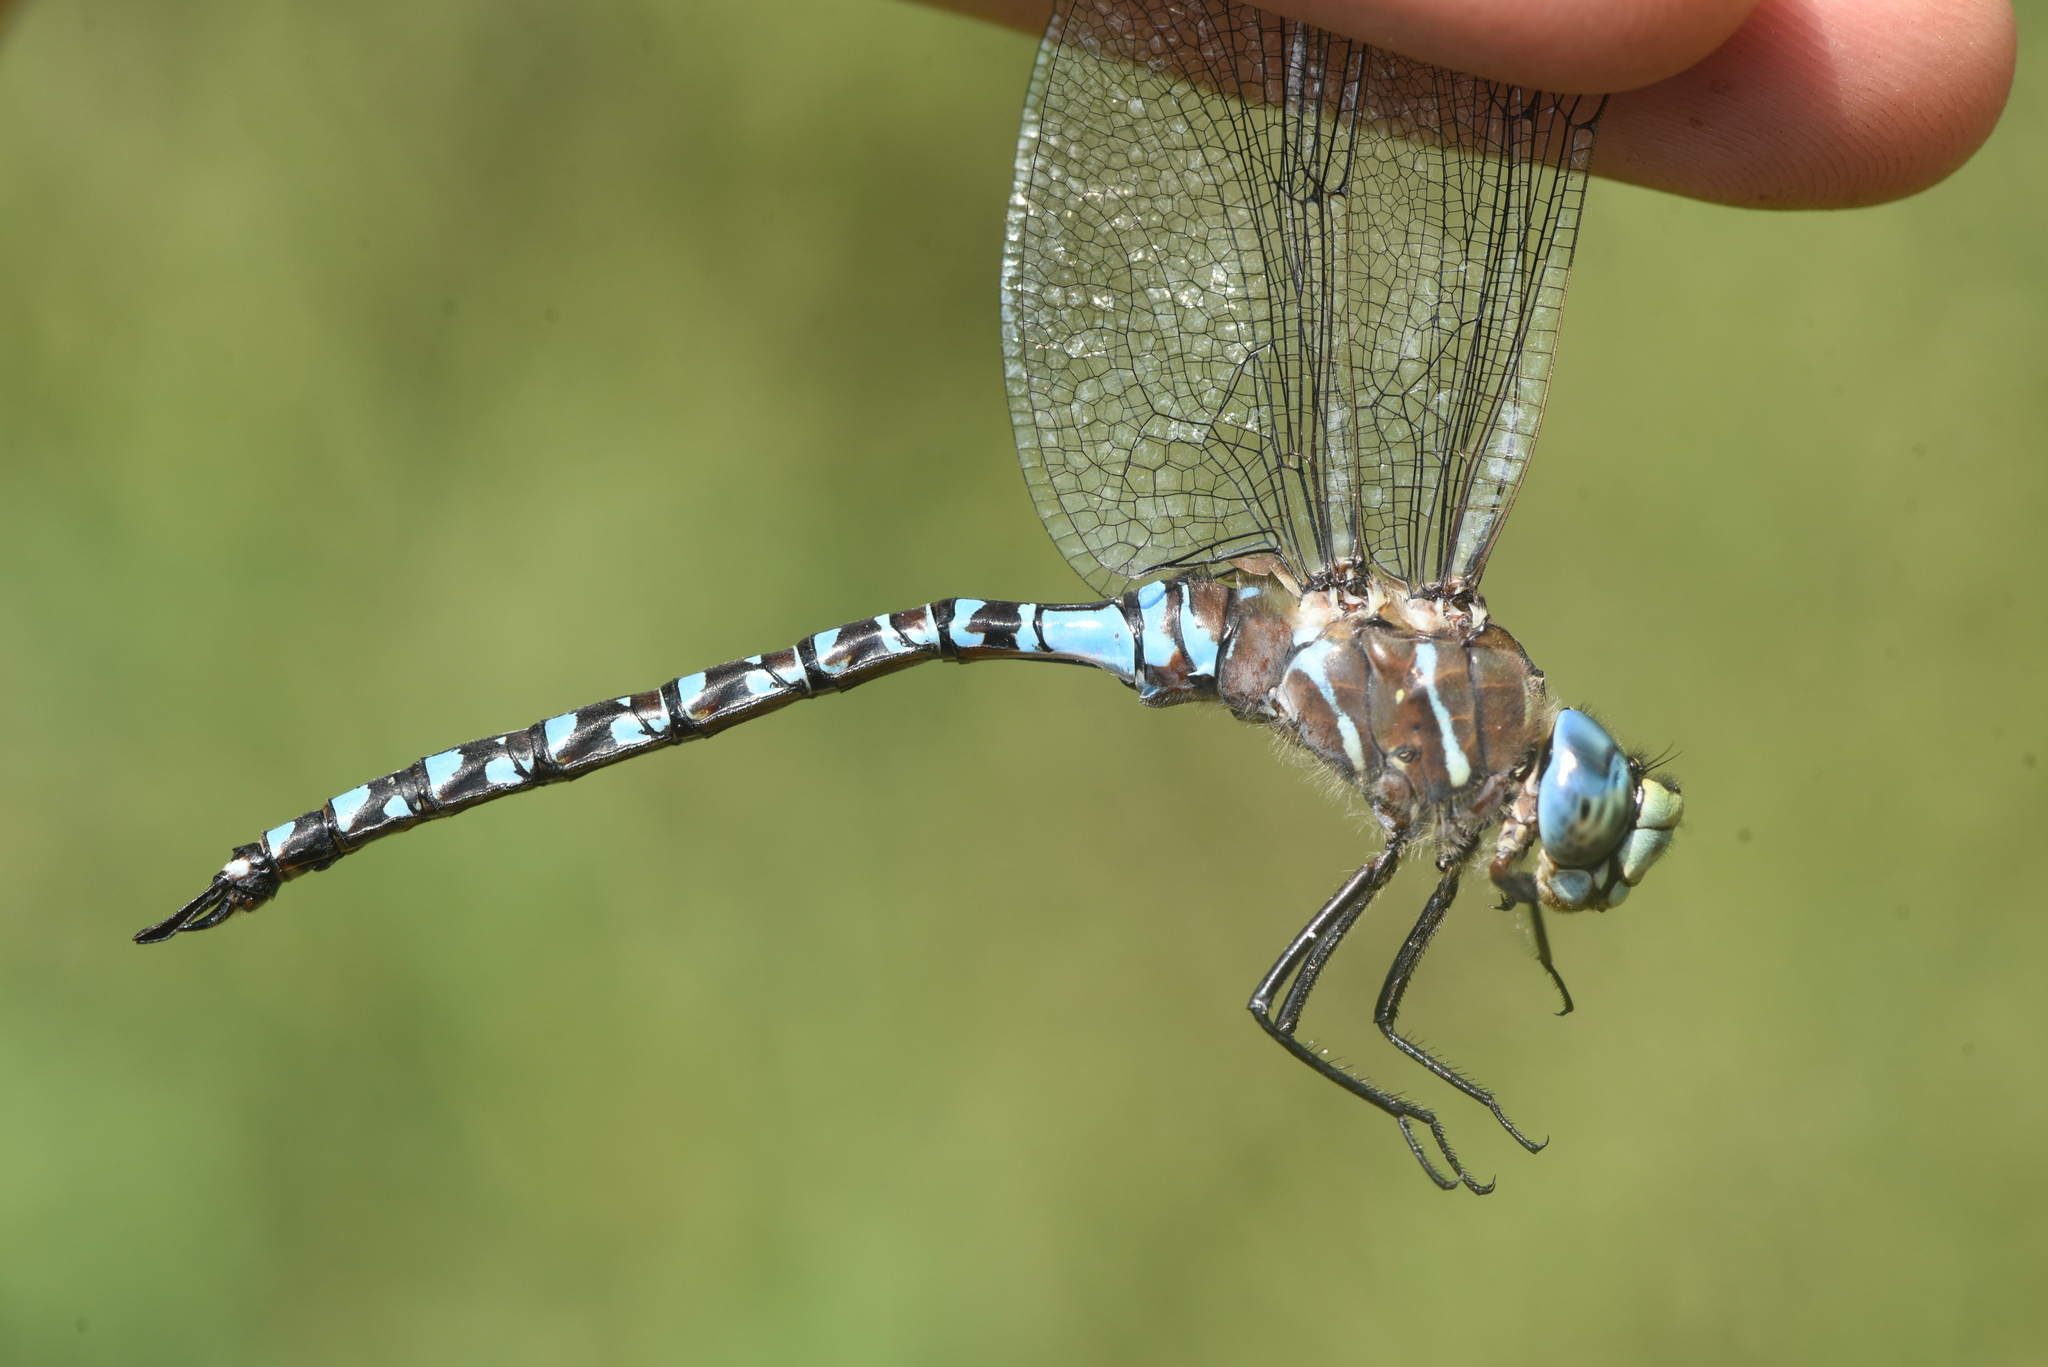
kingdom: Animalia
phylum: Arthropoda
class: Insecta
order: Odonata
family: Aeshnidae
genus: Aeshna
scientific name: Aeshna interrupta
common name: Variable darner
